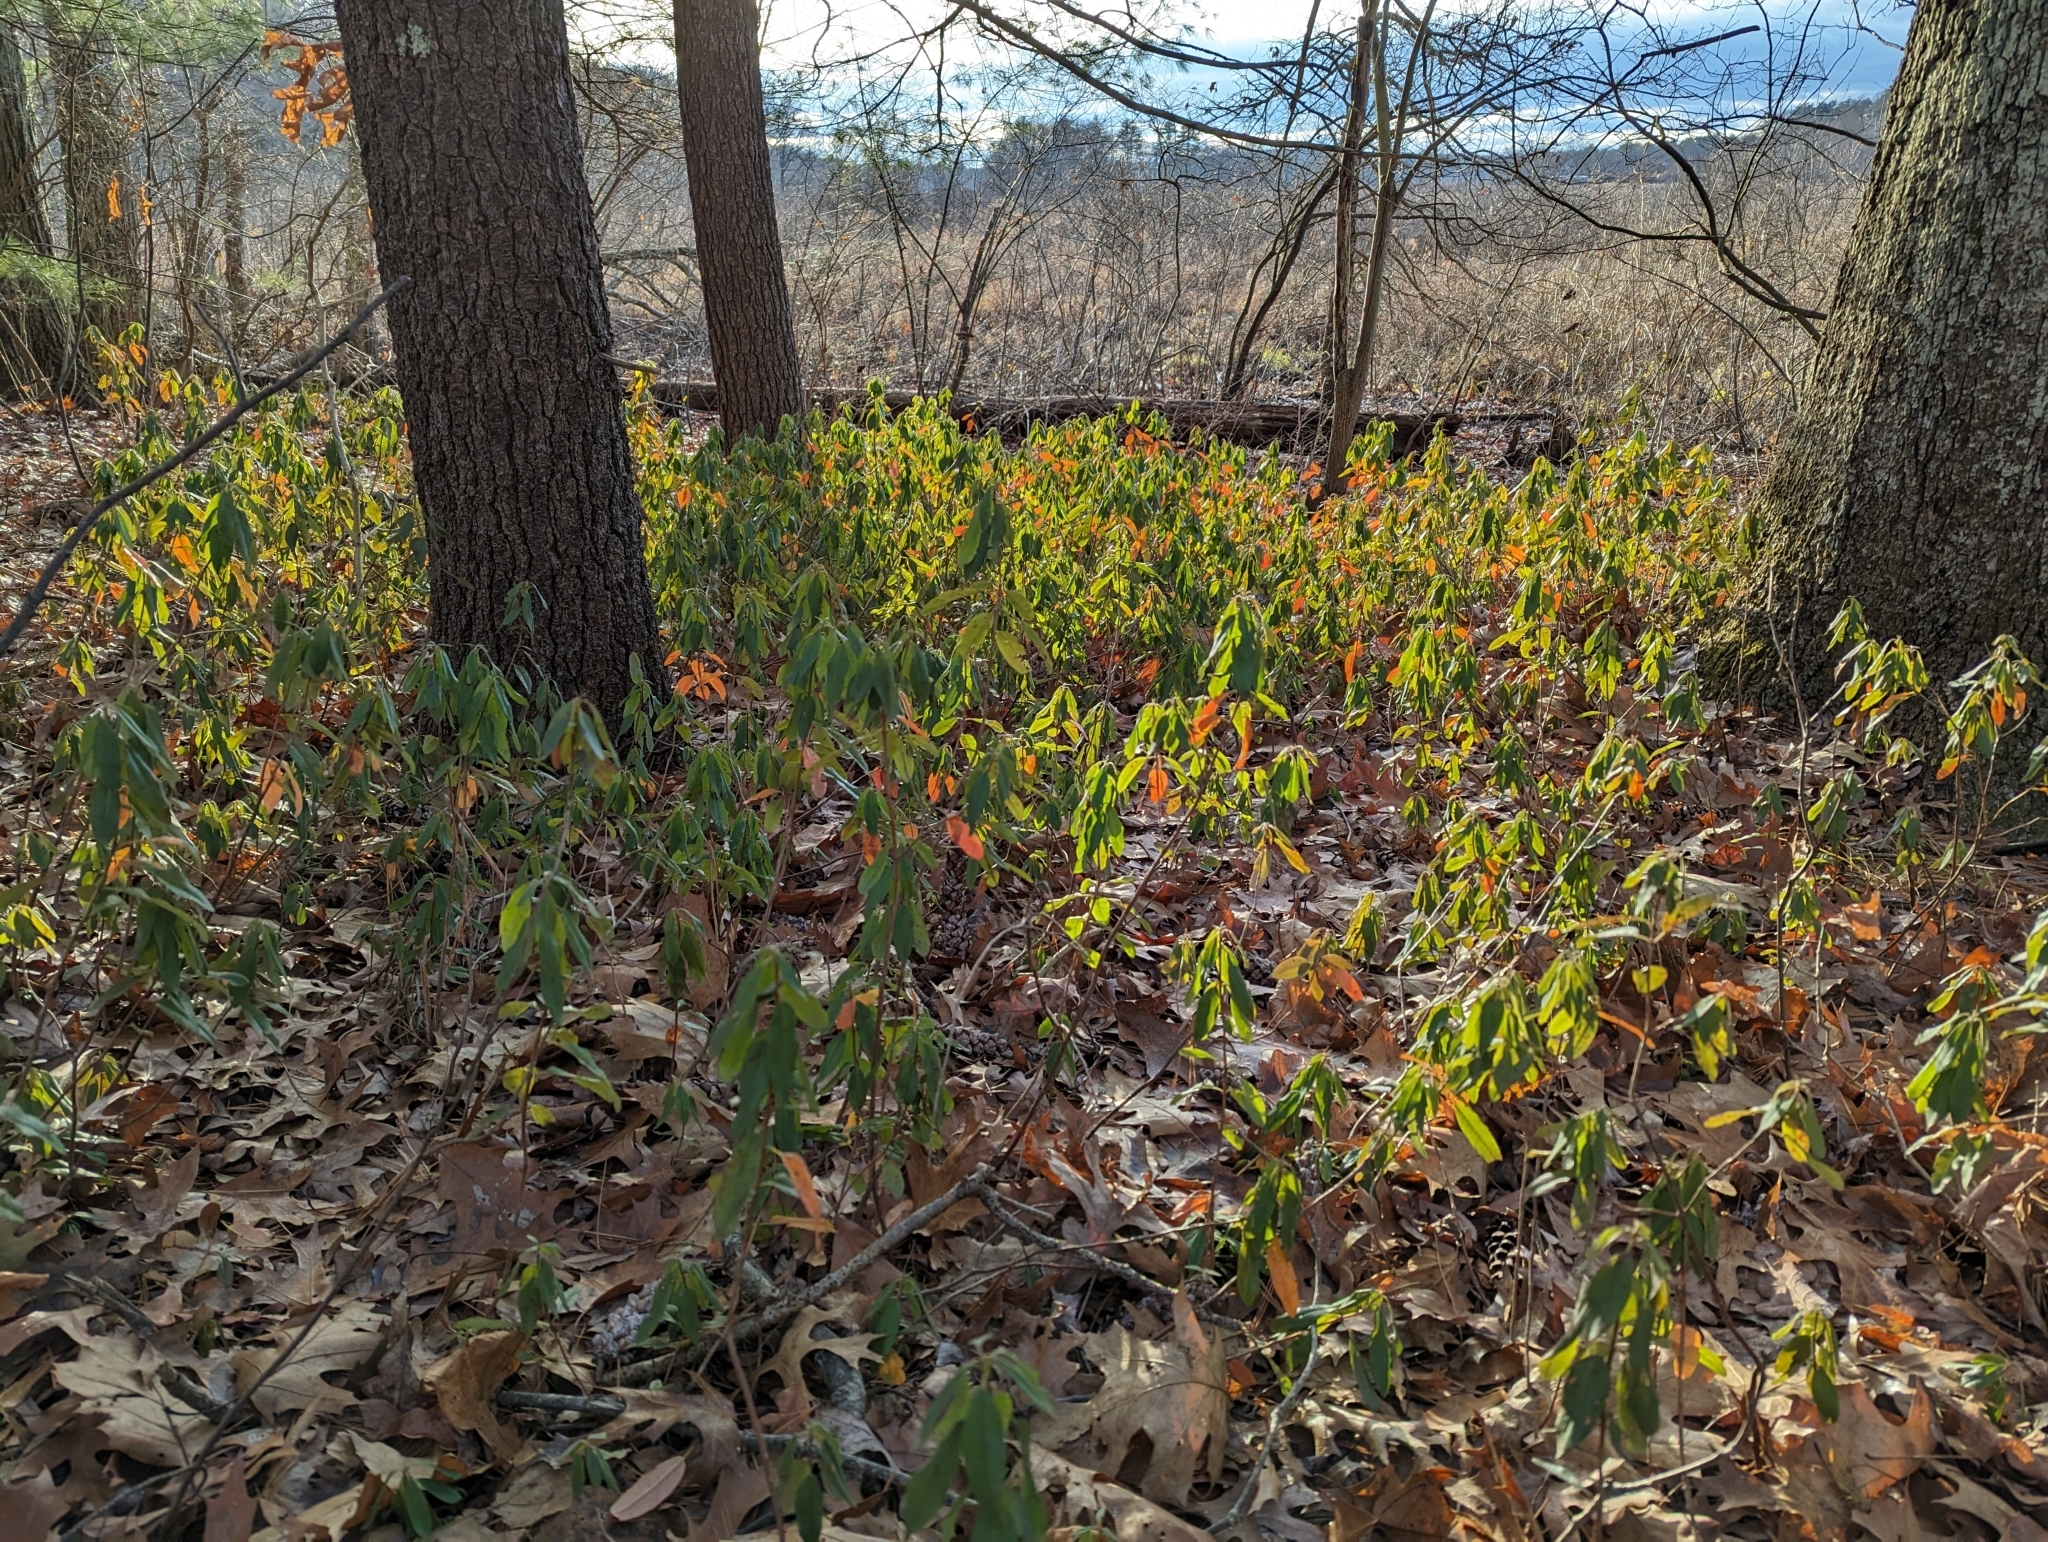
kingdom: Plantae
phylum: Tracheophyta
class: Magnoliopsida
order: Ericales
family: Ericaceae
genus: Kalmia
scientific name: Kalmia angustifolia
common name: Sheep-laurel
